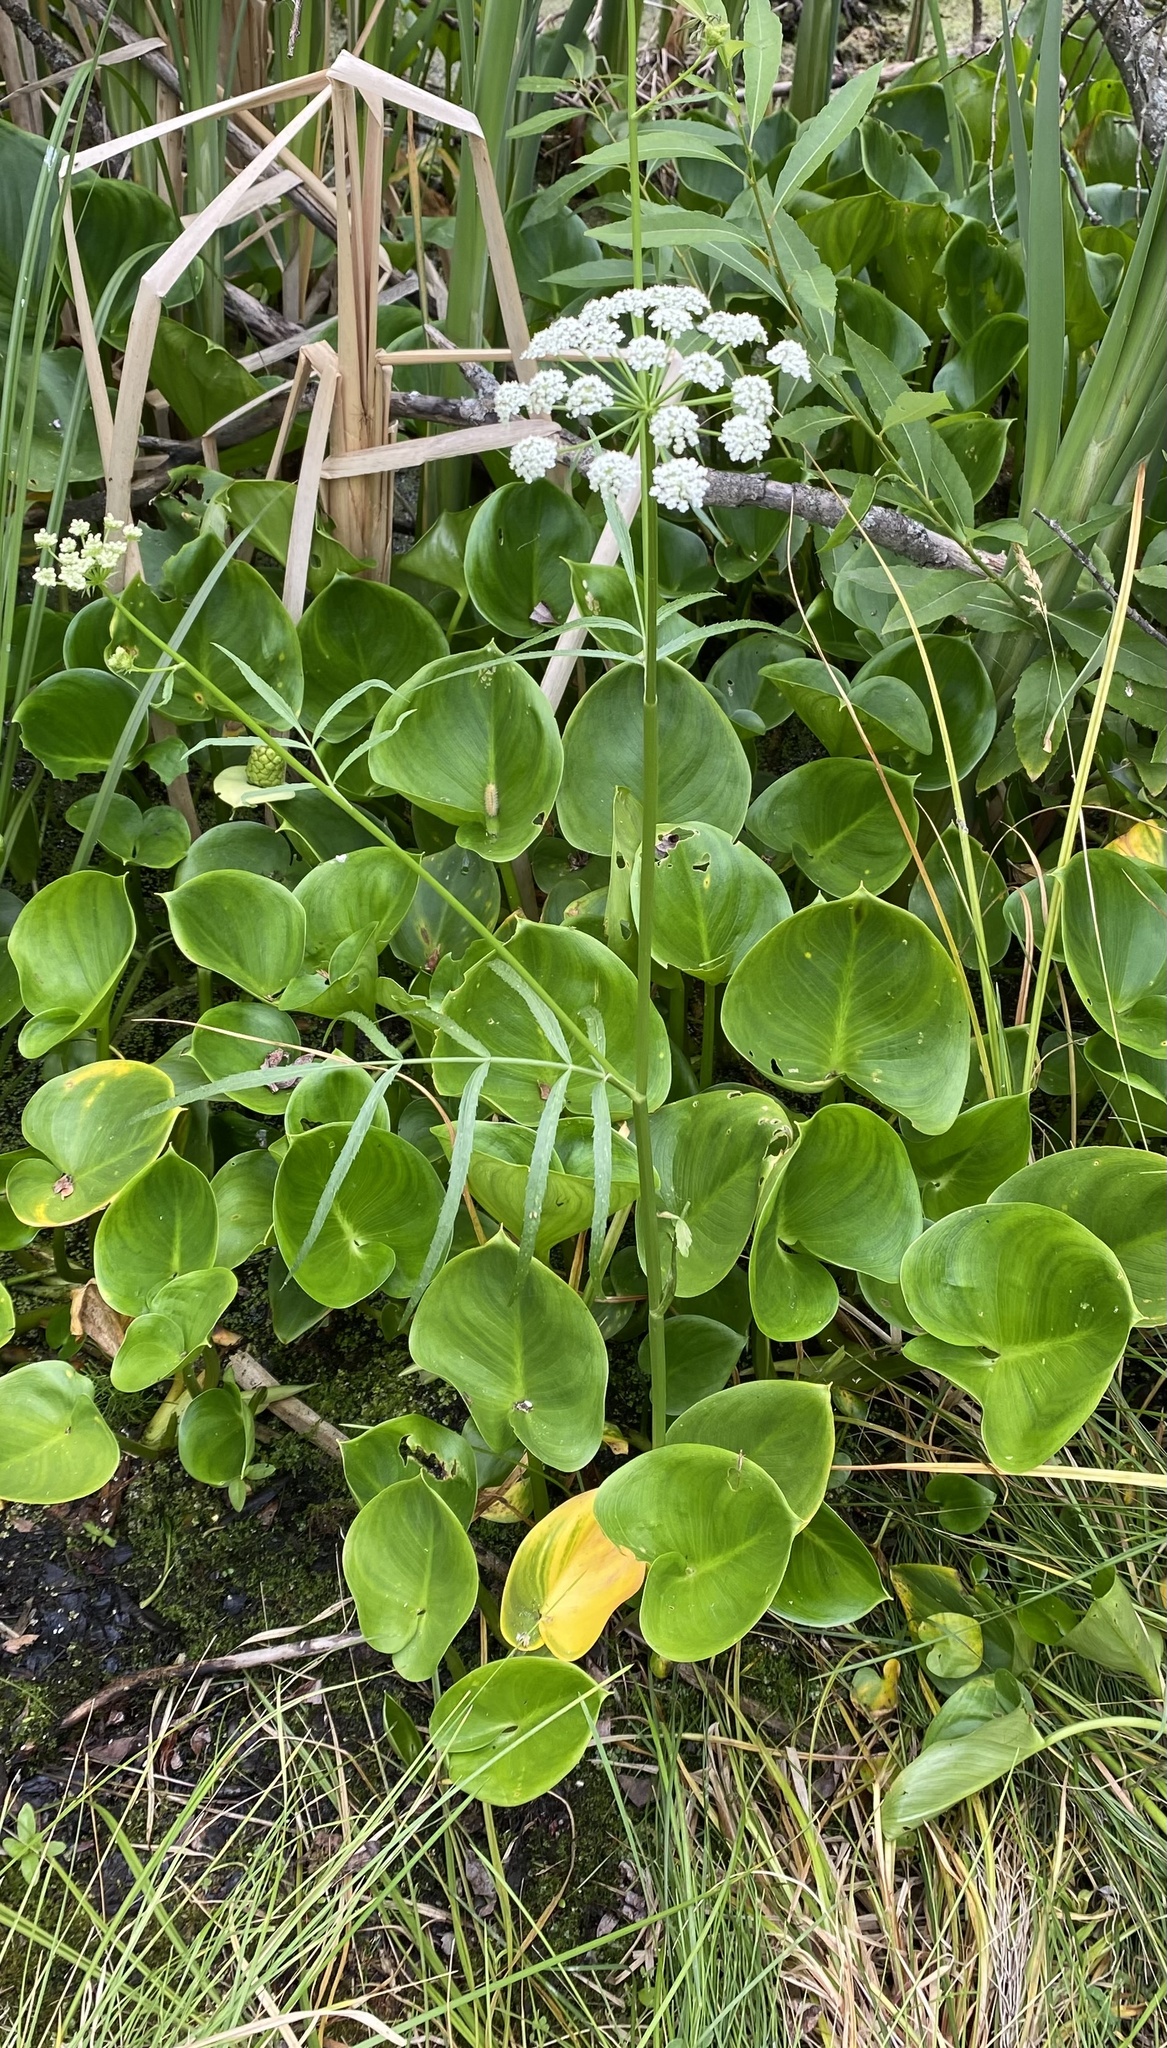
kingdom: Plantae
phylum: Tracheophyta
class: Magnoliopsida
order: Apiales
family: Apiaceae
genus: Sium
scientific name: Sium suave
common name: Hemlock water-parsnip
